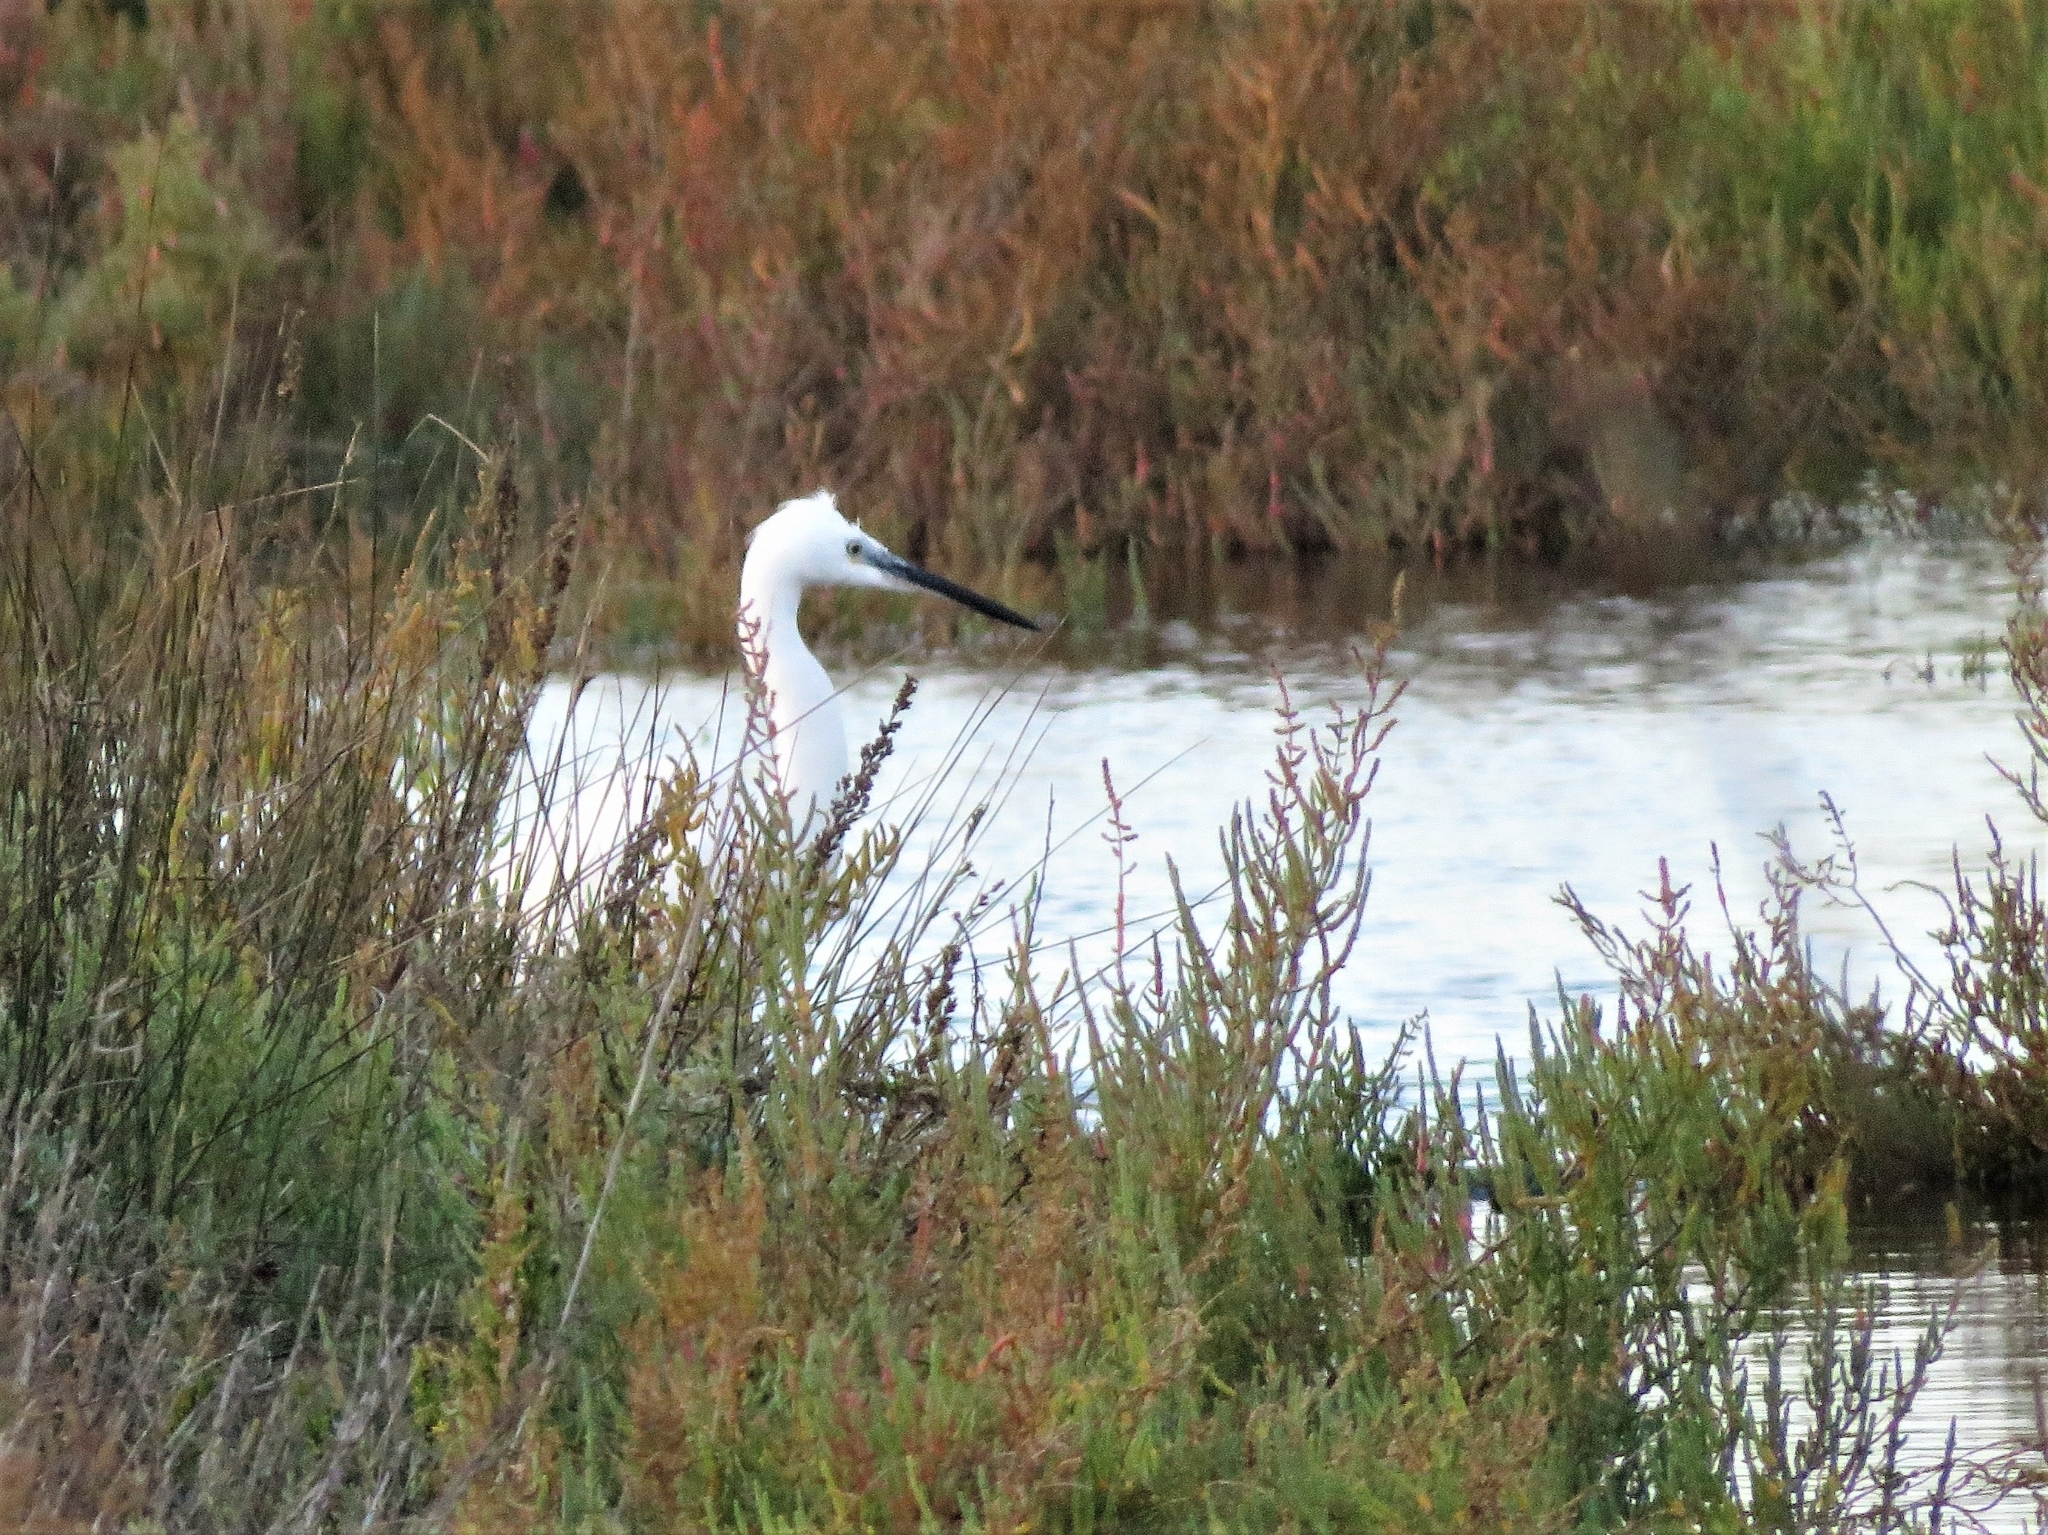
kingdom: Animalia
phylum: Chordata
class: Aves
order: Pelecaniformes
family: Ardeidae
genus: Egretta
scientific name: Egretta garzetta
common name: Little egret
